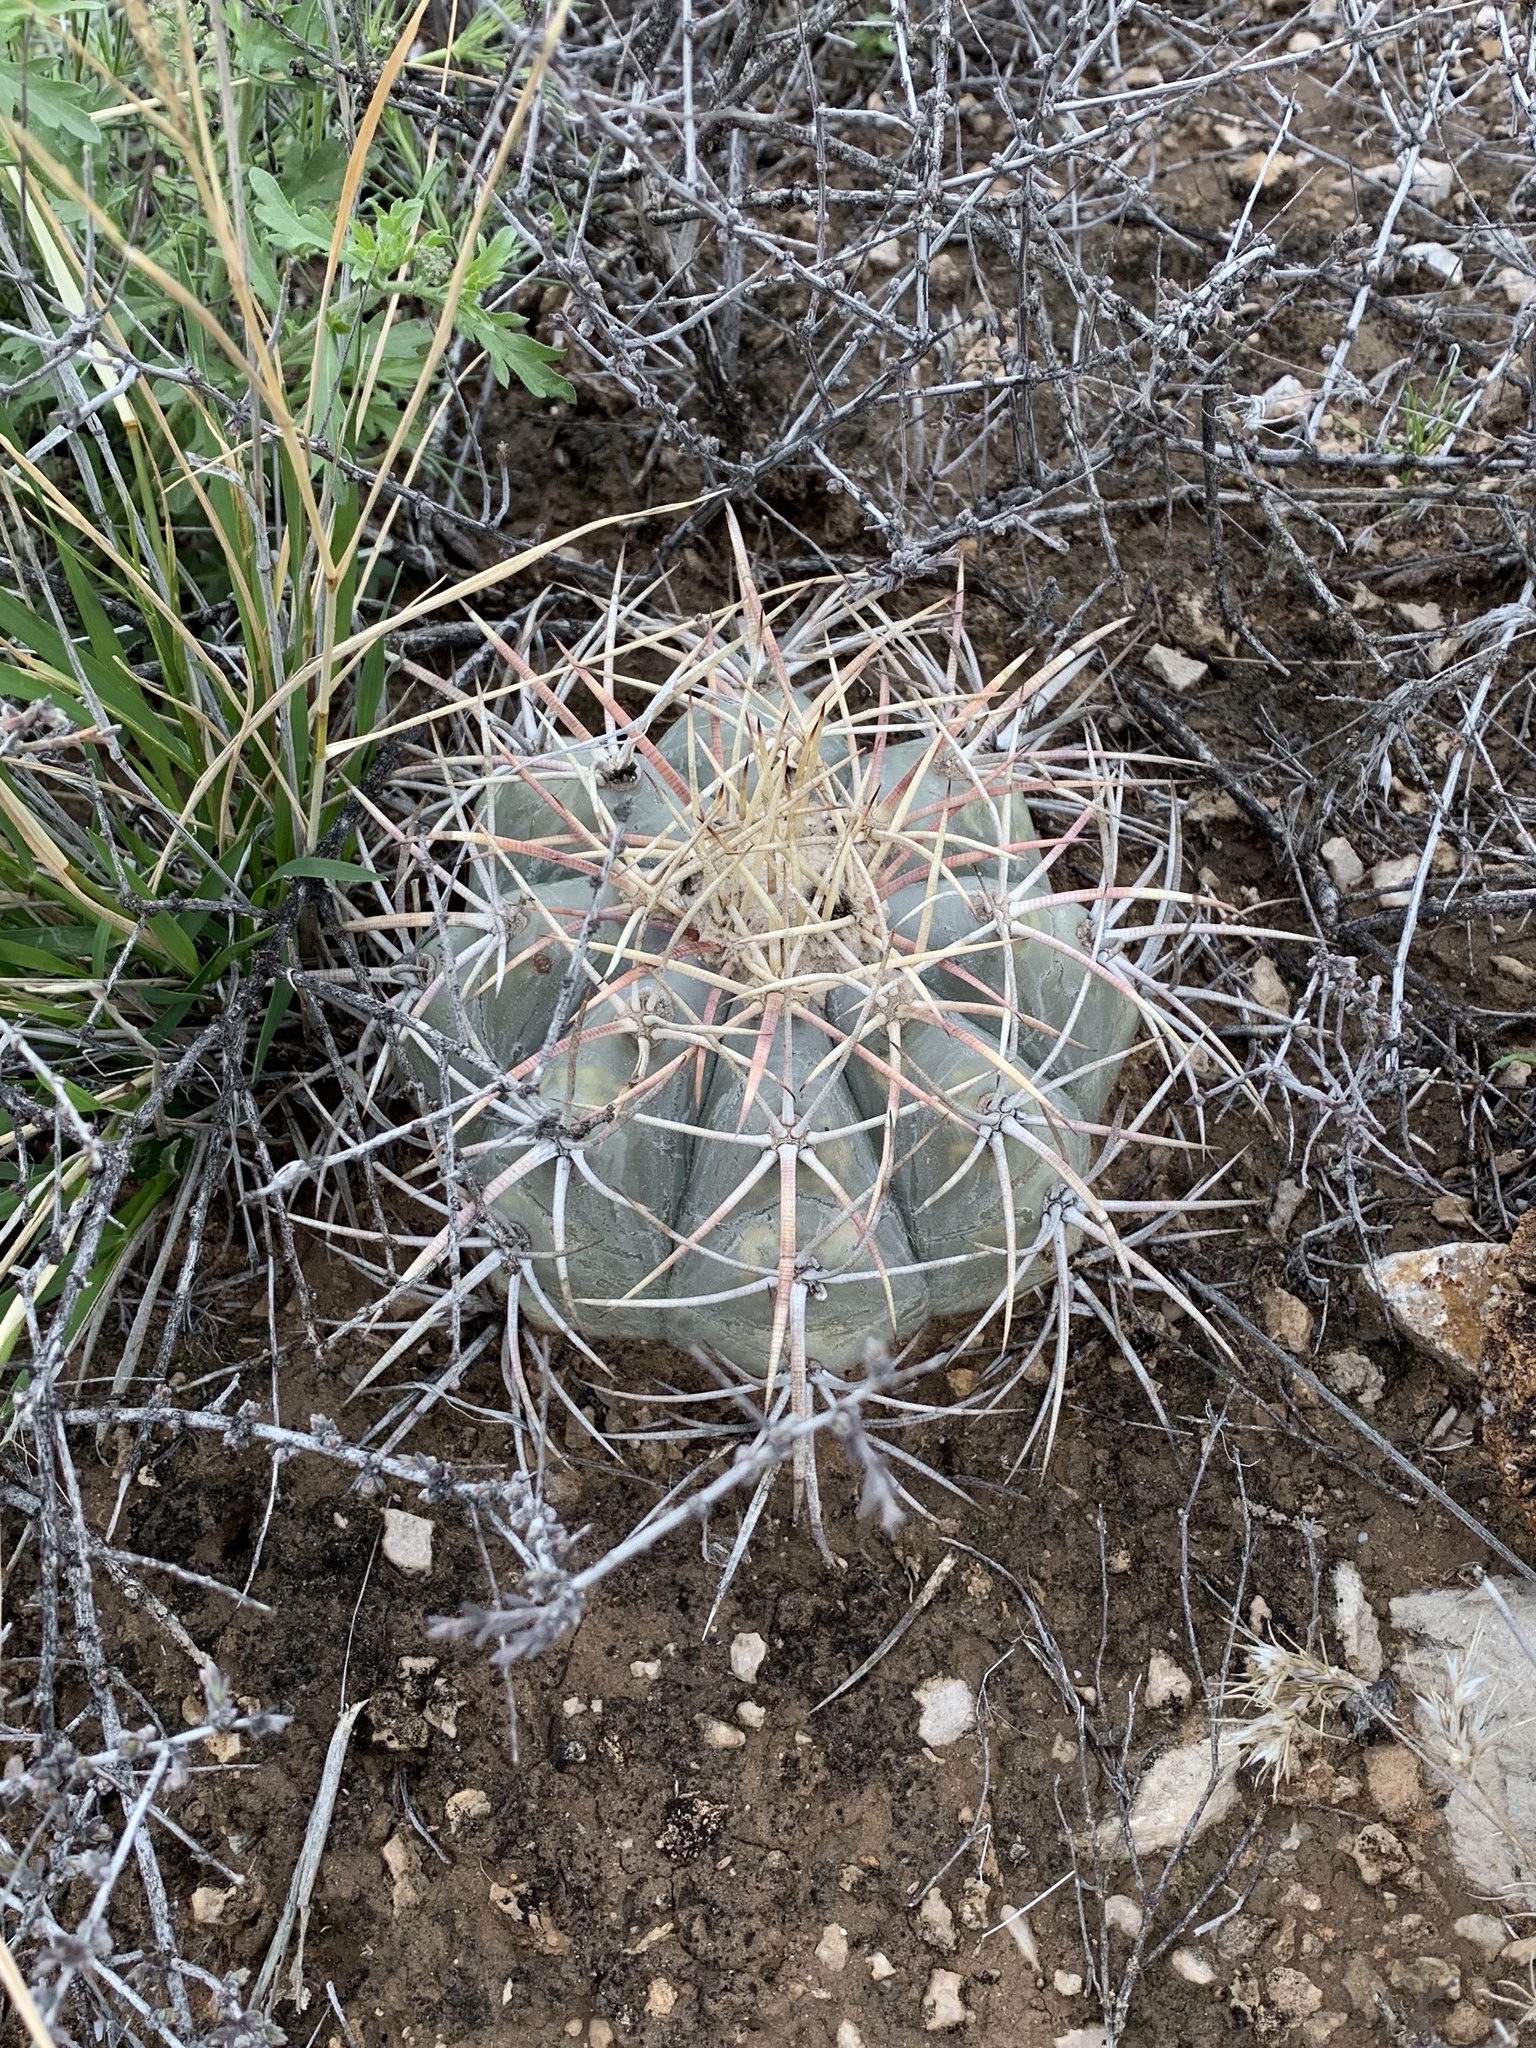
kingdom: Plantae
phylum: Tracheophyta
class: Magnoliopsida
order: Caryophyllales
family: Cactaceae
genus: Echinocactus
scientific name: Echinocactus horizonthalonius
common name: Devilshead
